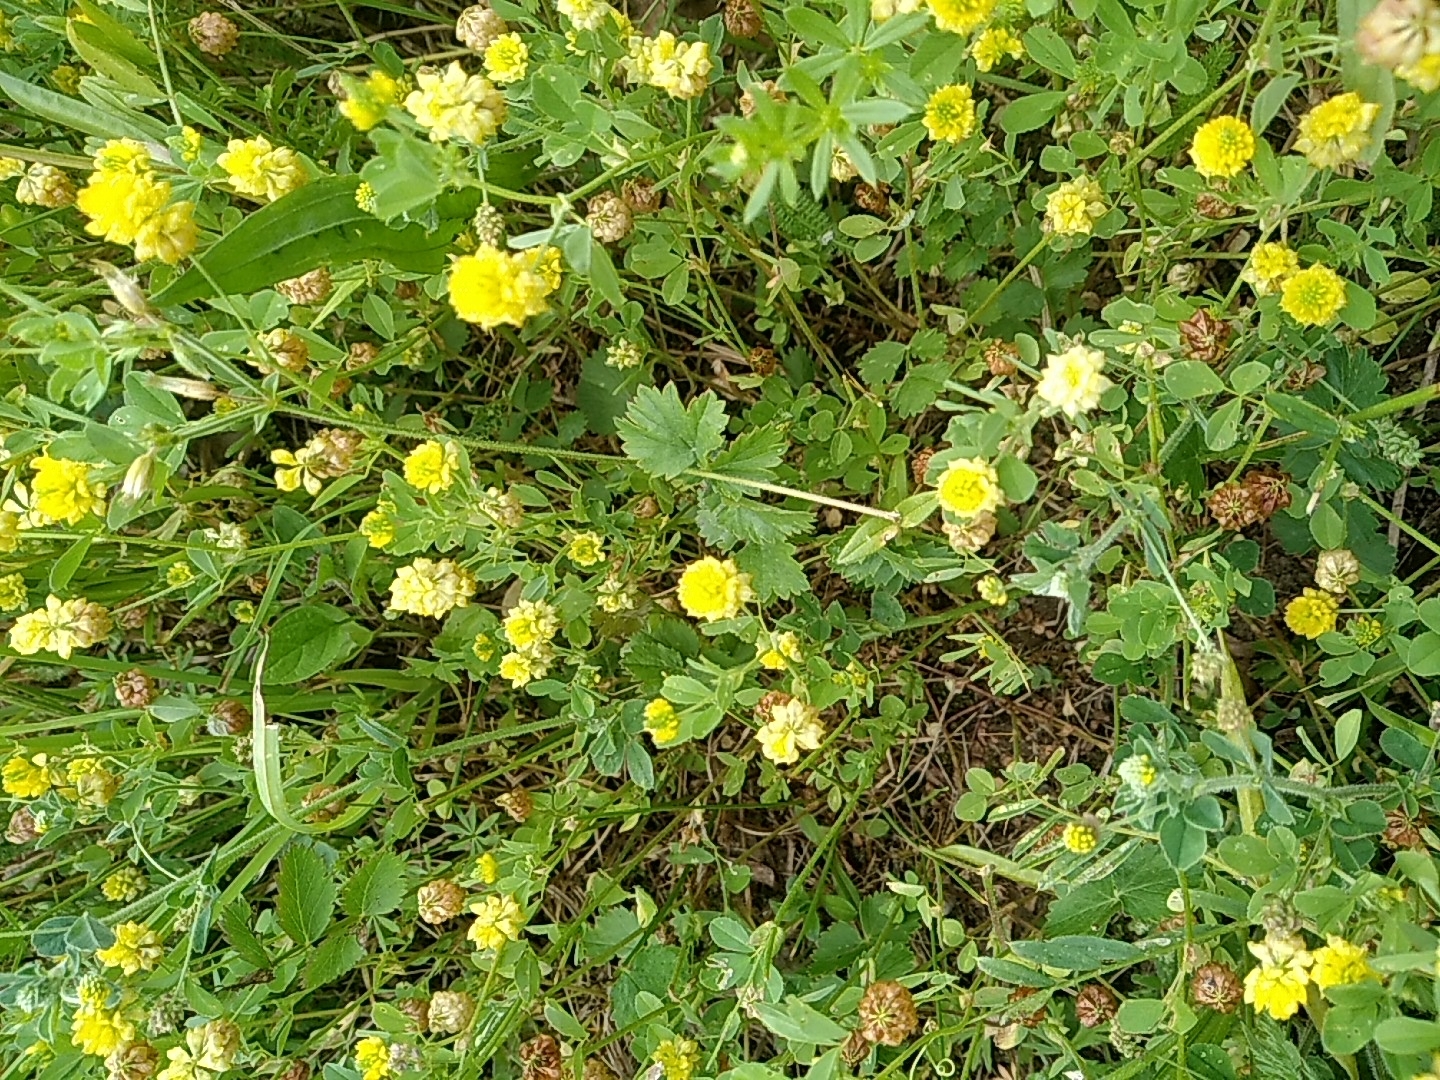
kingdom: Plantae
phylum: Tracheophyta
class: Magnoliopsida
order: Fabales
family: Fabaceae
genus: Trifolium
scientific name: Trifolium campestre
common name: Field clover
